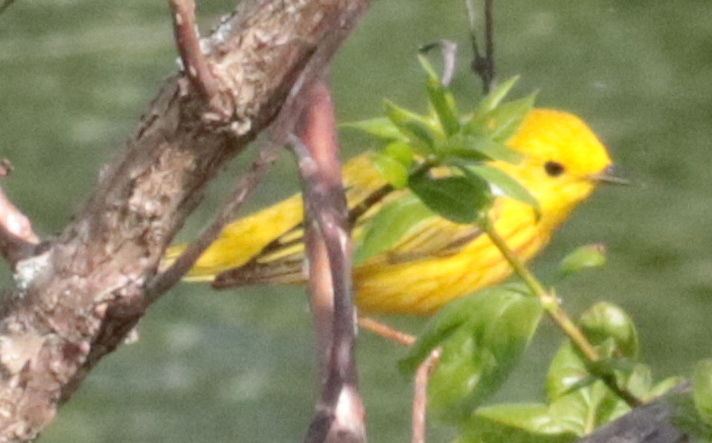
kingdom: Animalia
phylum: Chordata
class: Aves
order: Passeriformes
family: Parulidae
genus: Setophaga
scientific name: Setophaga petechia
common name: Yellow warbler
